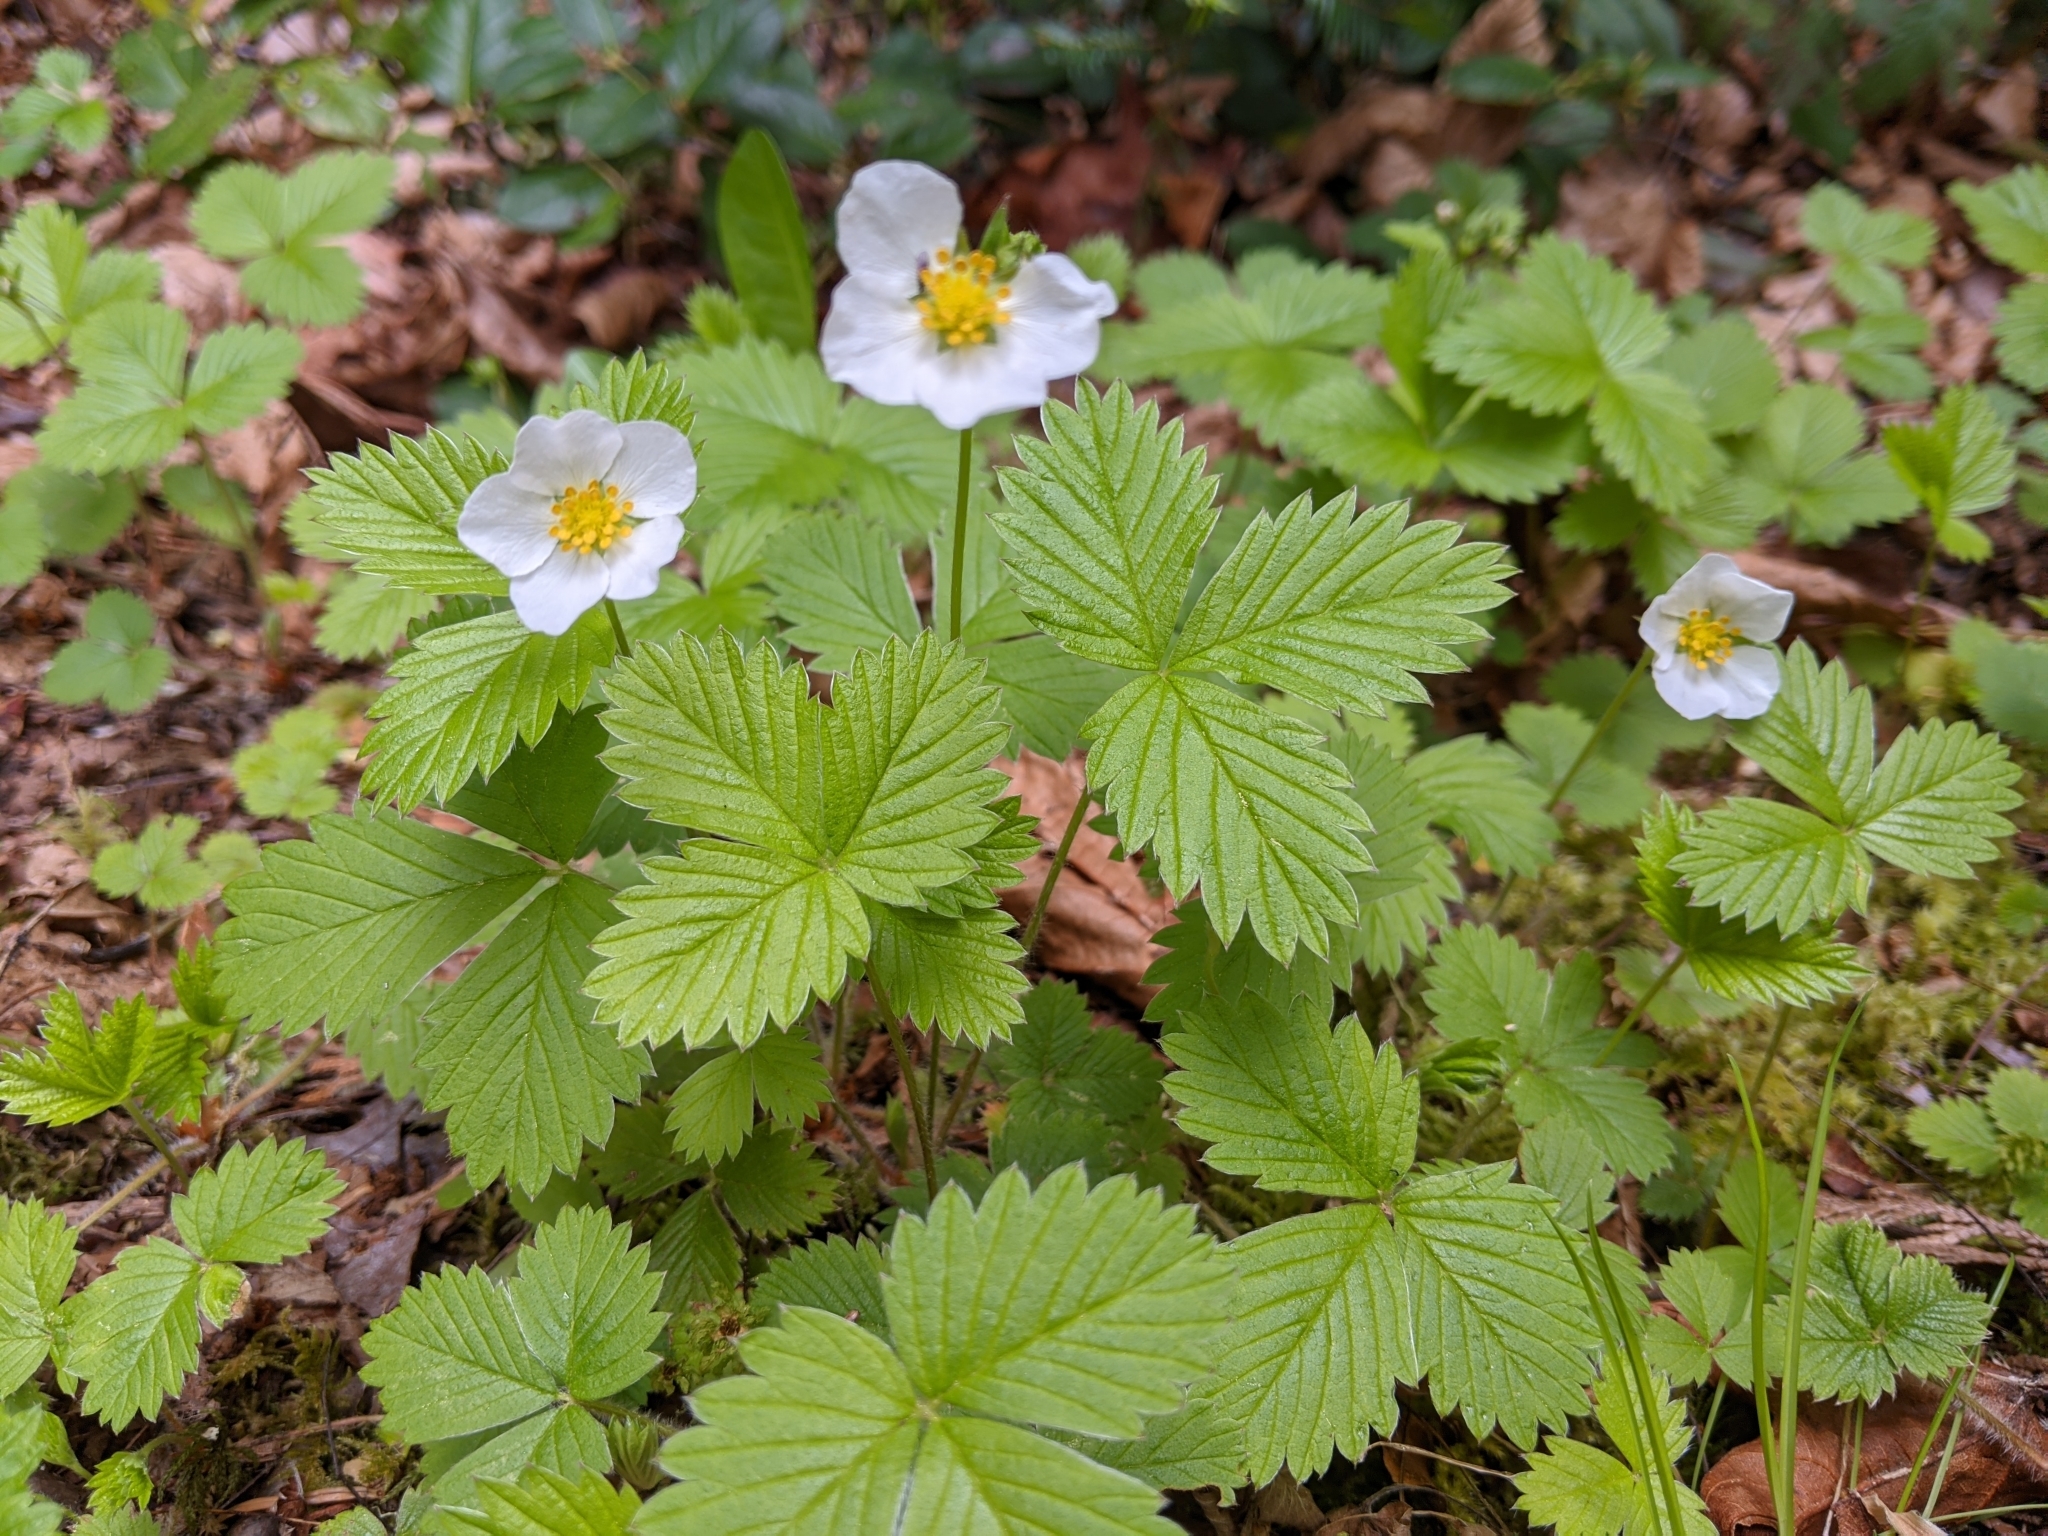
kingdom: Plantae
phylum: Tracheophyta
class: Magnoliopsida
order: Rosales
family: Rosaceae
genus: Fragaria
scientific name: Fragaria vesca
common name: Wild strawberry
